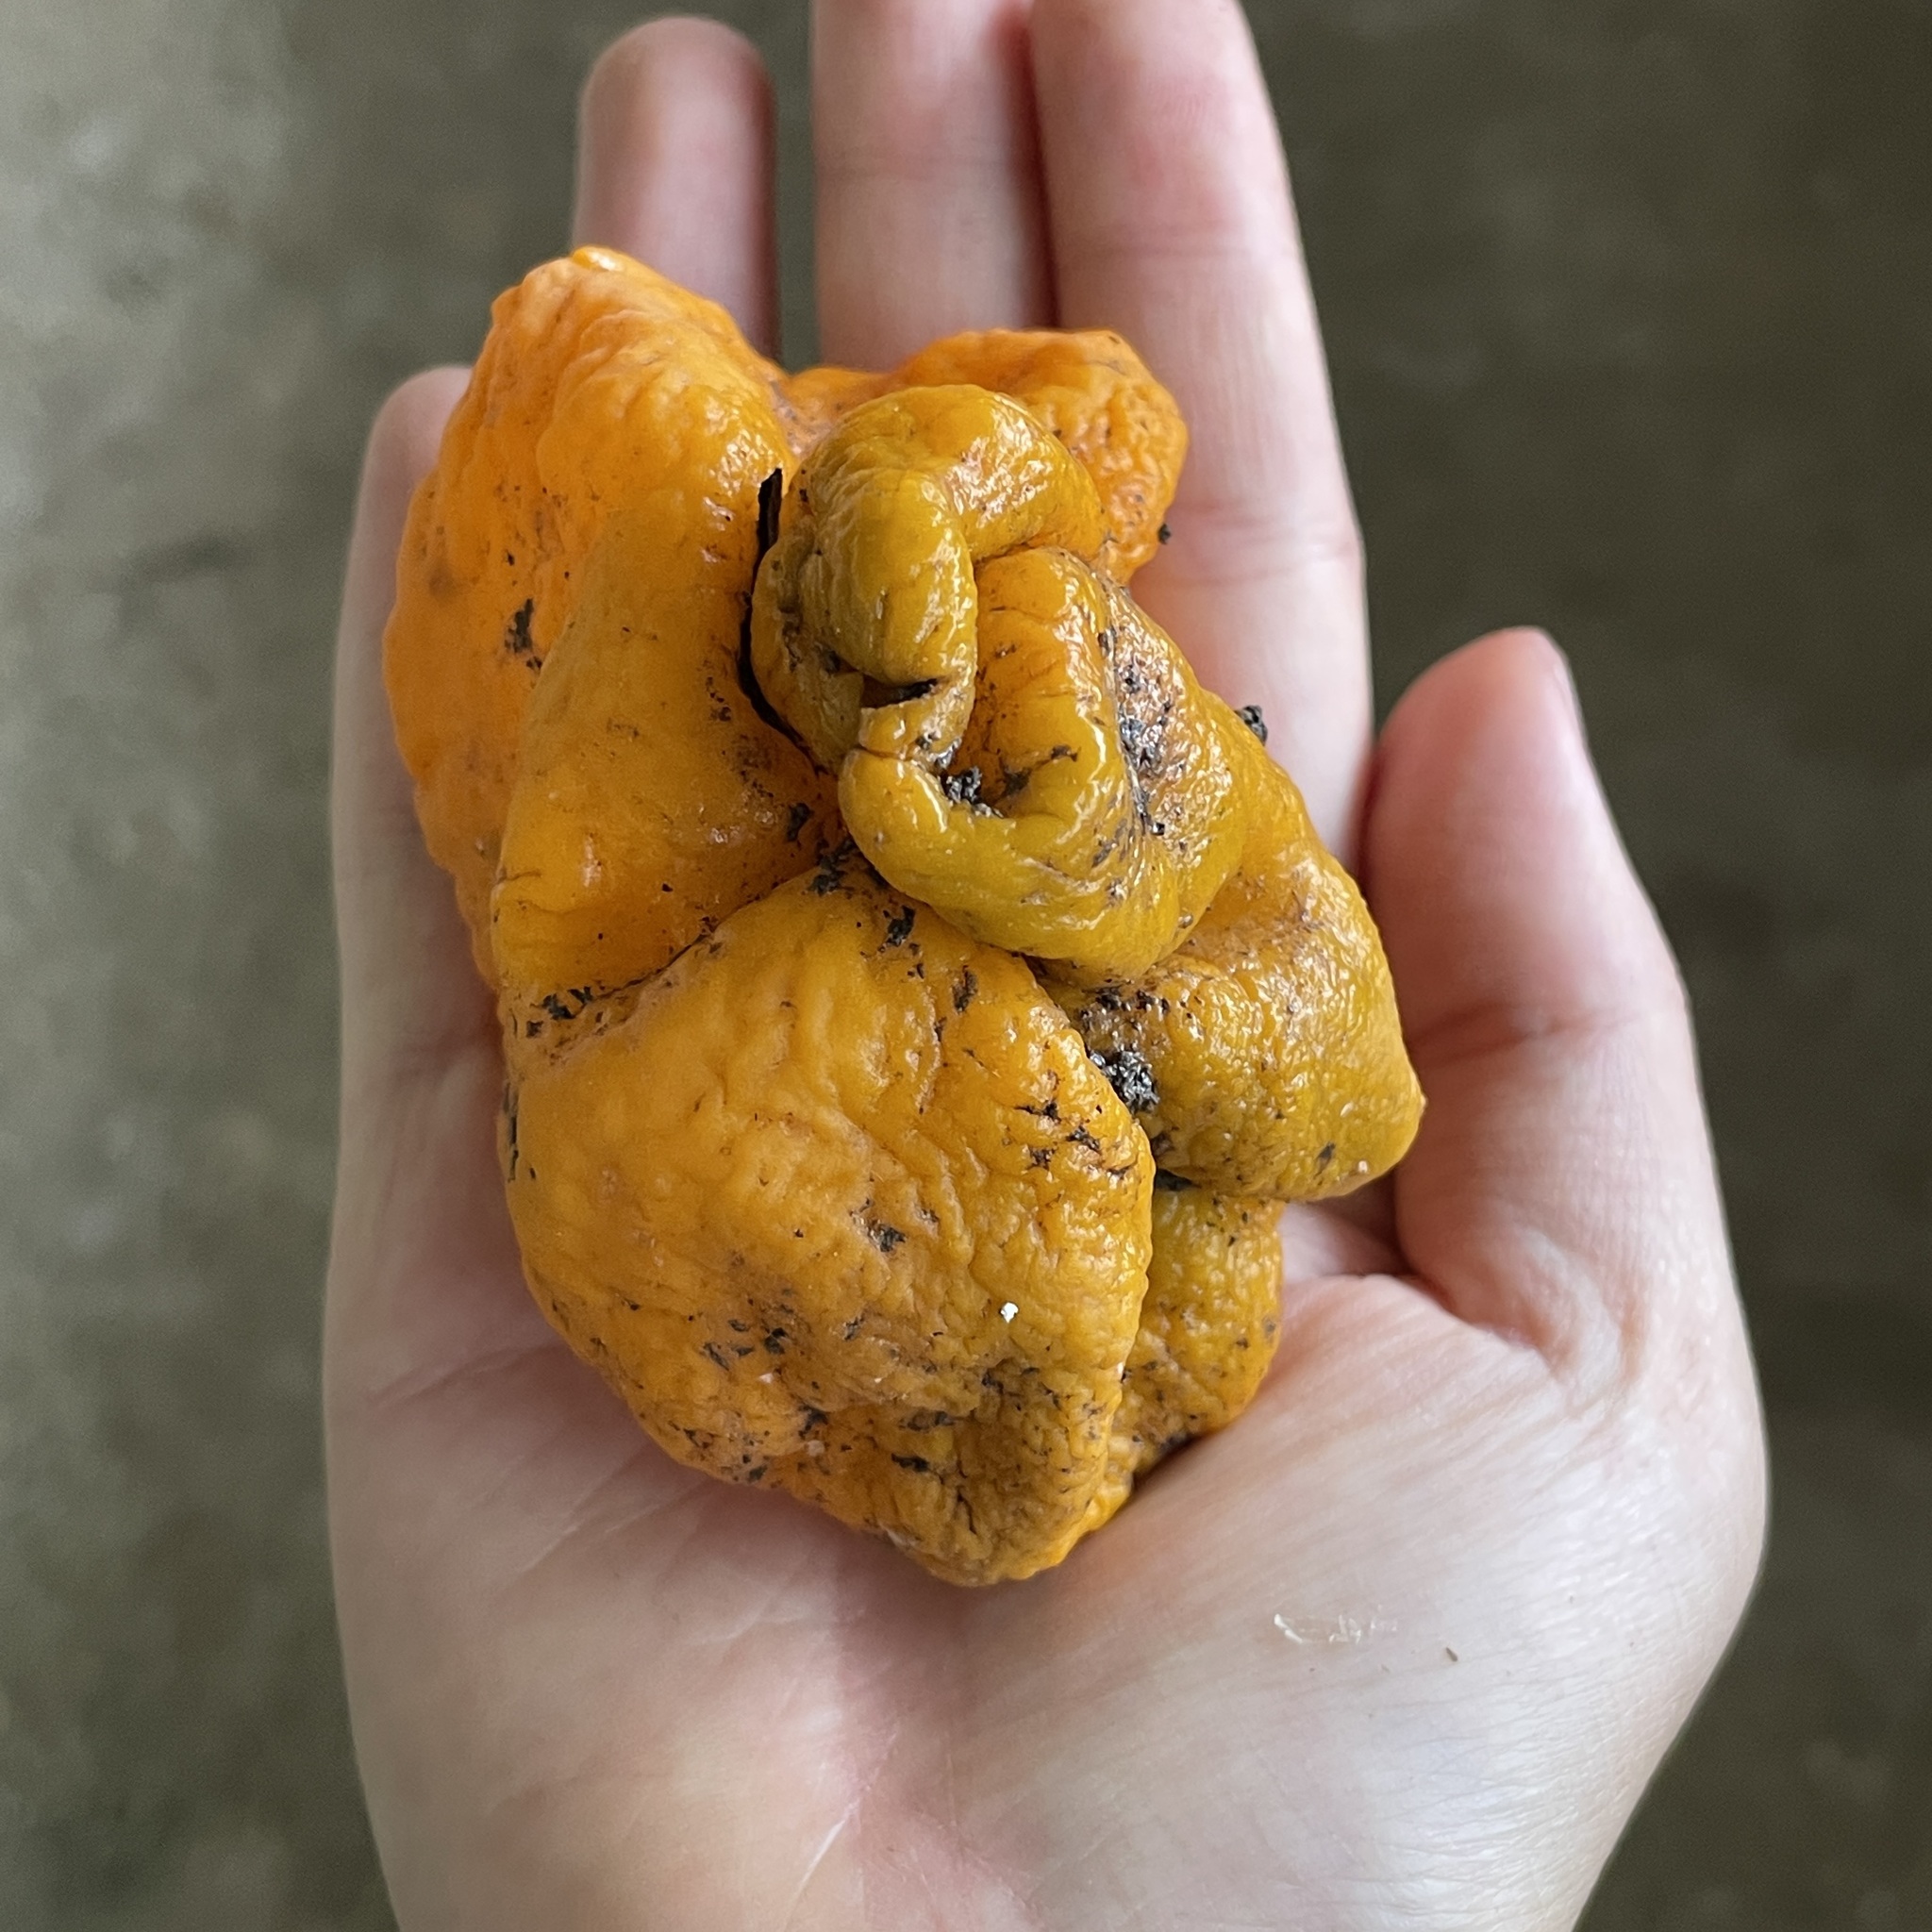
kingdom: Fungi
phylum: Ascomycota
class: Pezizomycetes
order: Pezizales
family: Glaziellaceae
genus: Glaziella
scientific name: Glaziella aurantiaca
